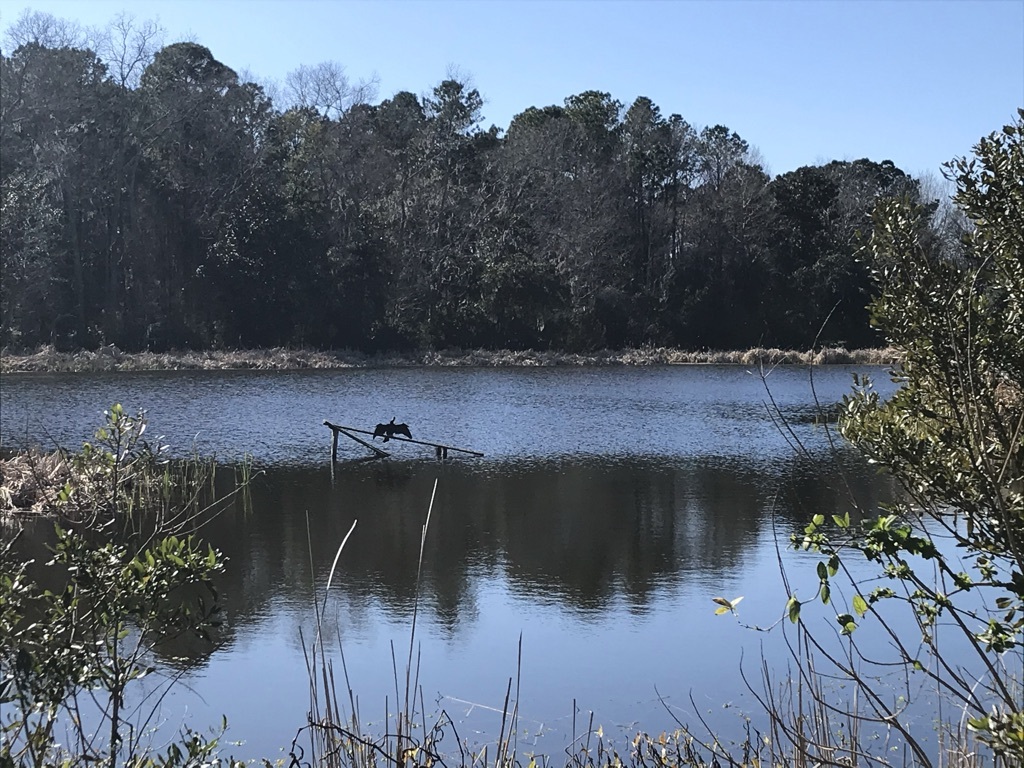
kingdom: Animalia
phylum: Chordata
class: Aves
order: Suliformes
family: Anhingidae
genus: Anhinga
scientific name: Anhinga anhinga
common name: Anhinga
